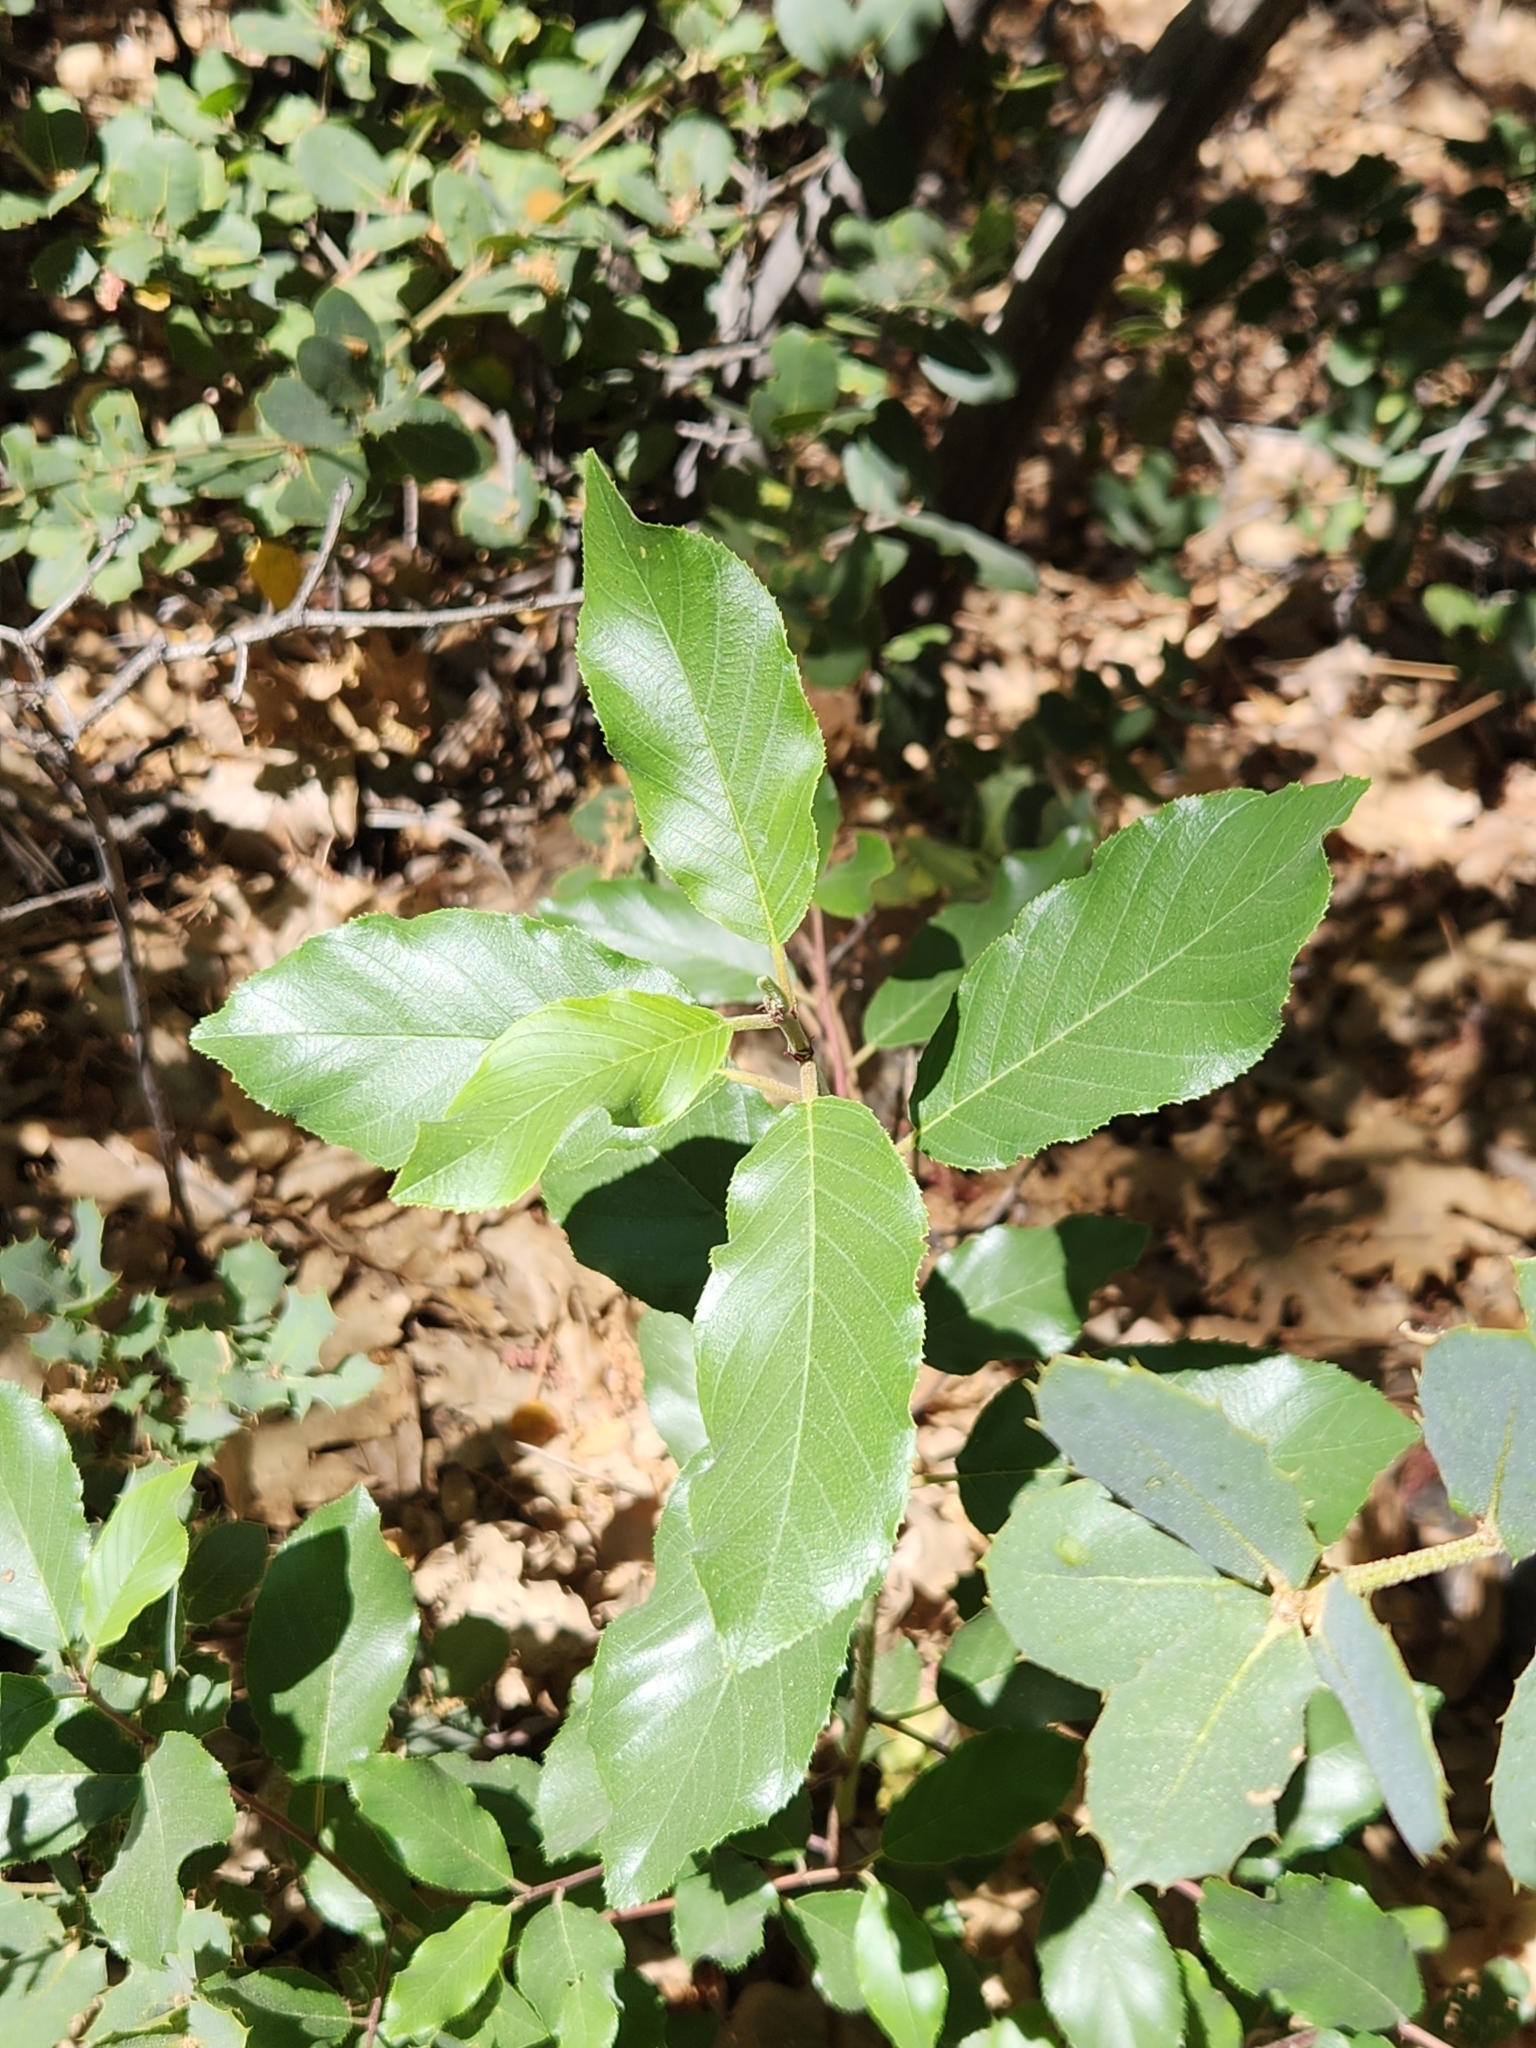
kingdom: Plantae
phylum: Tracheophyta
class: Magnoliopsida
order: Rosales
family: Rhamnaceae
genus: Frangula
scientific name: Frangula californica
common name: California buckthorn
